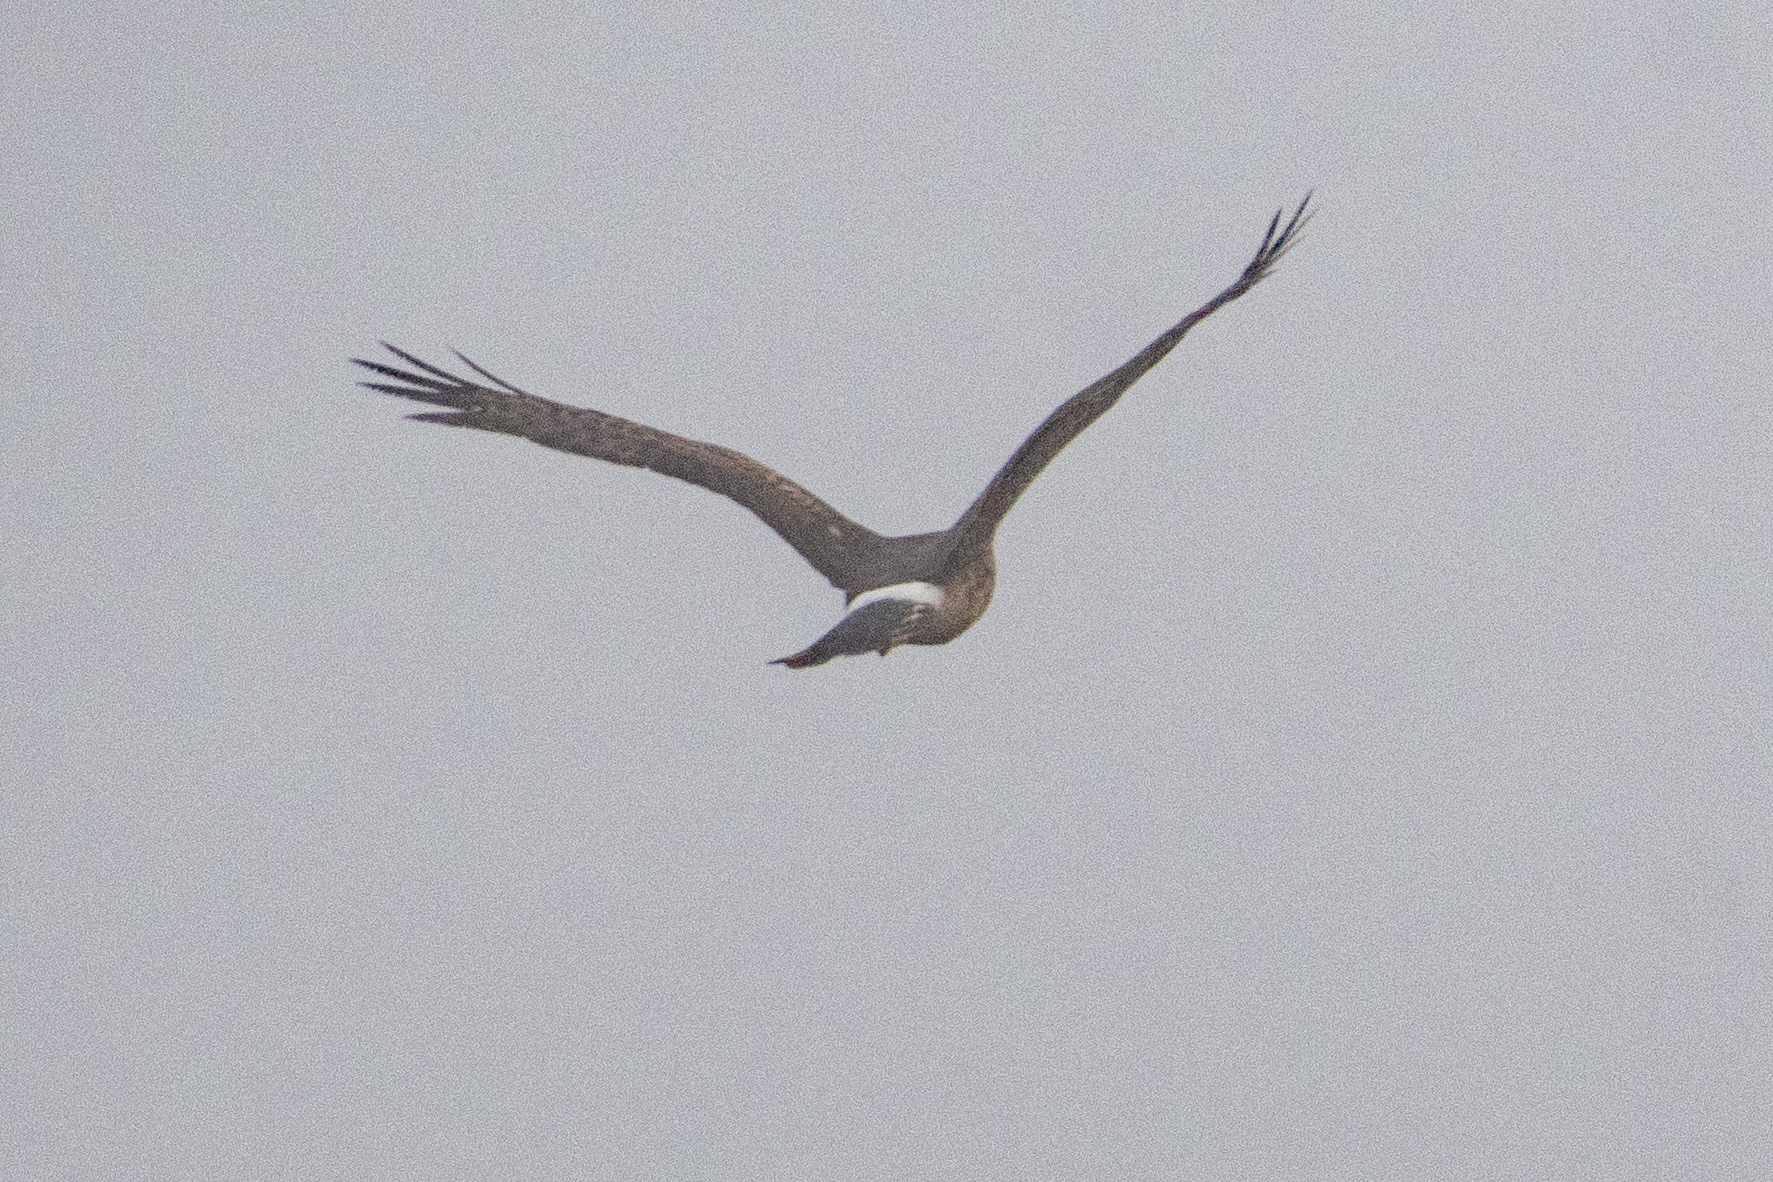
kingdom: Animalia
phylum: Chordata
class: Aves
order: Accipitriformes
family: Accipitridae
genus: Circus
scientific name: Circus cyaneus
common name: Hen harrier
